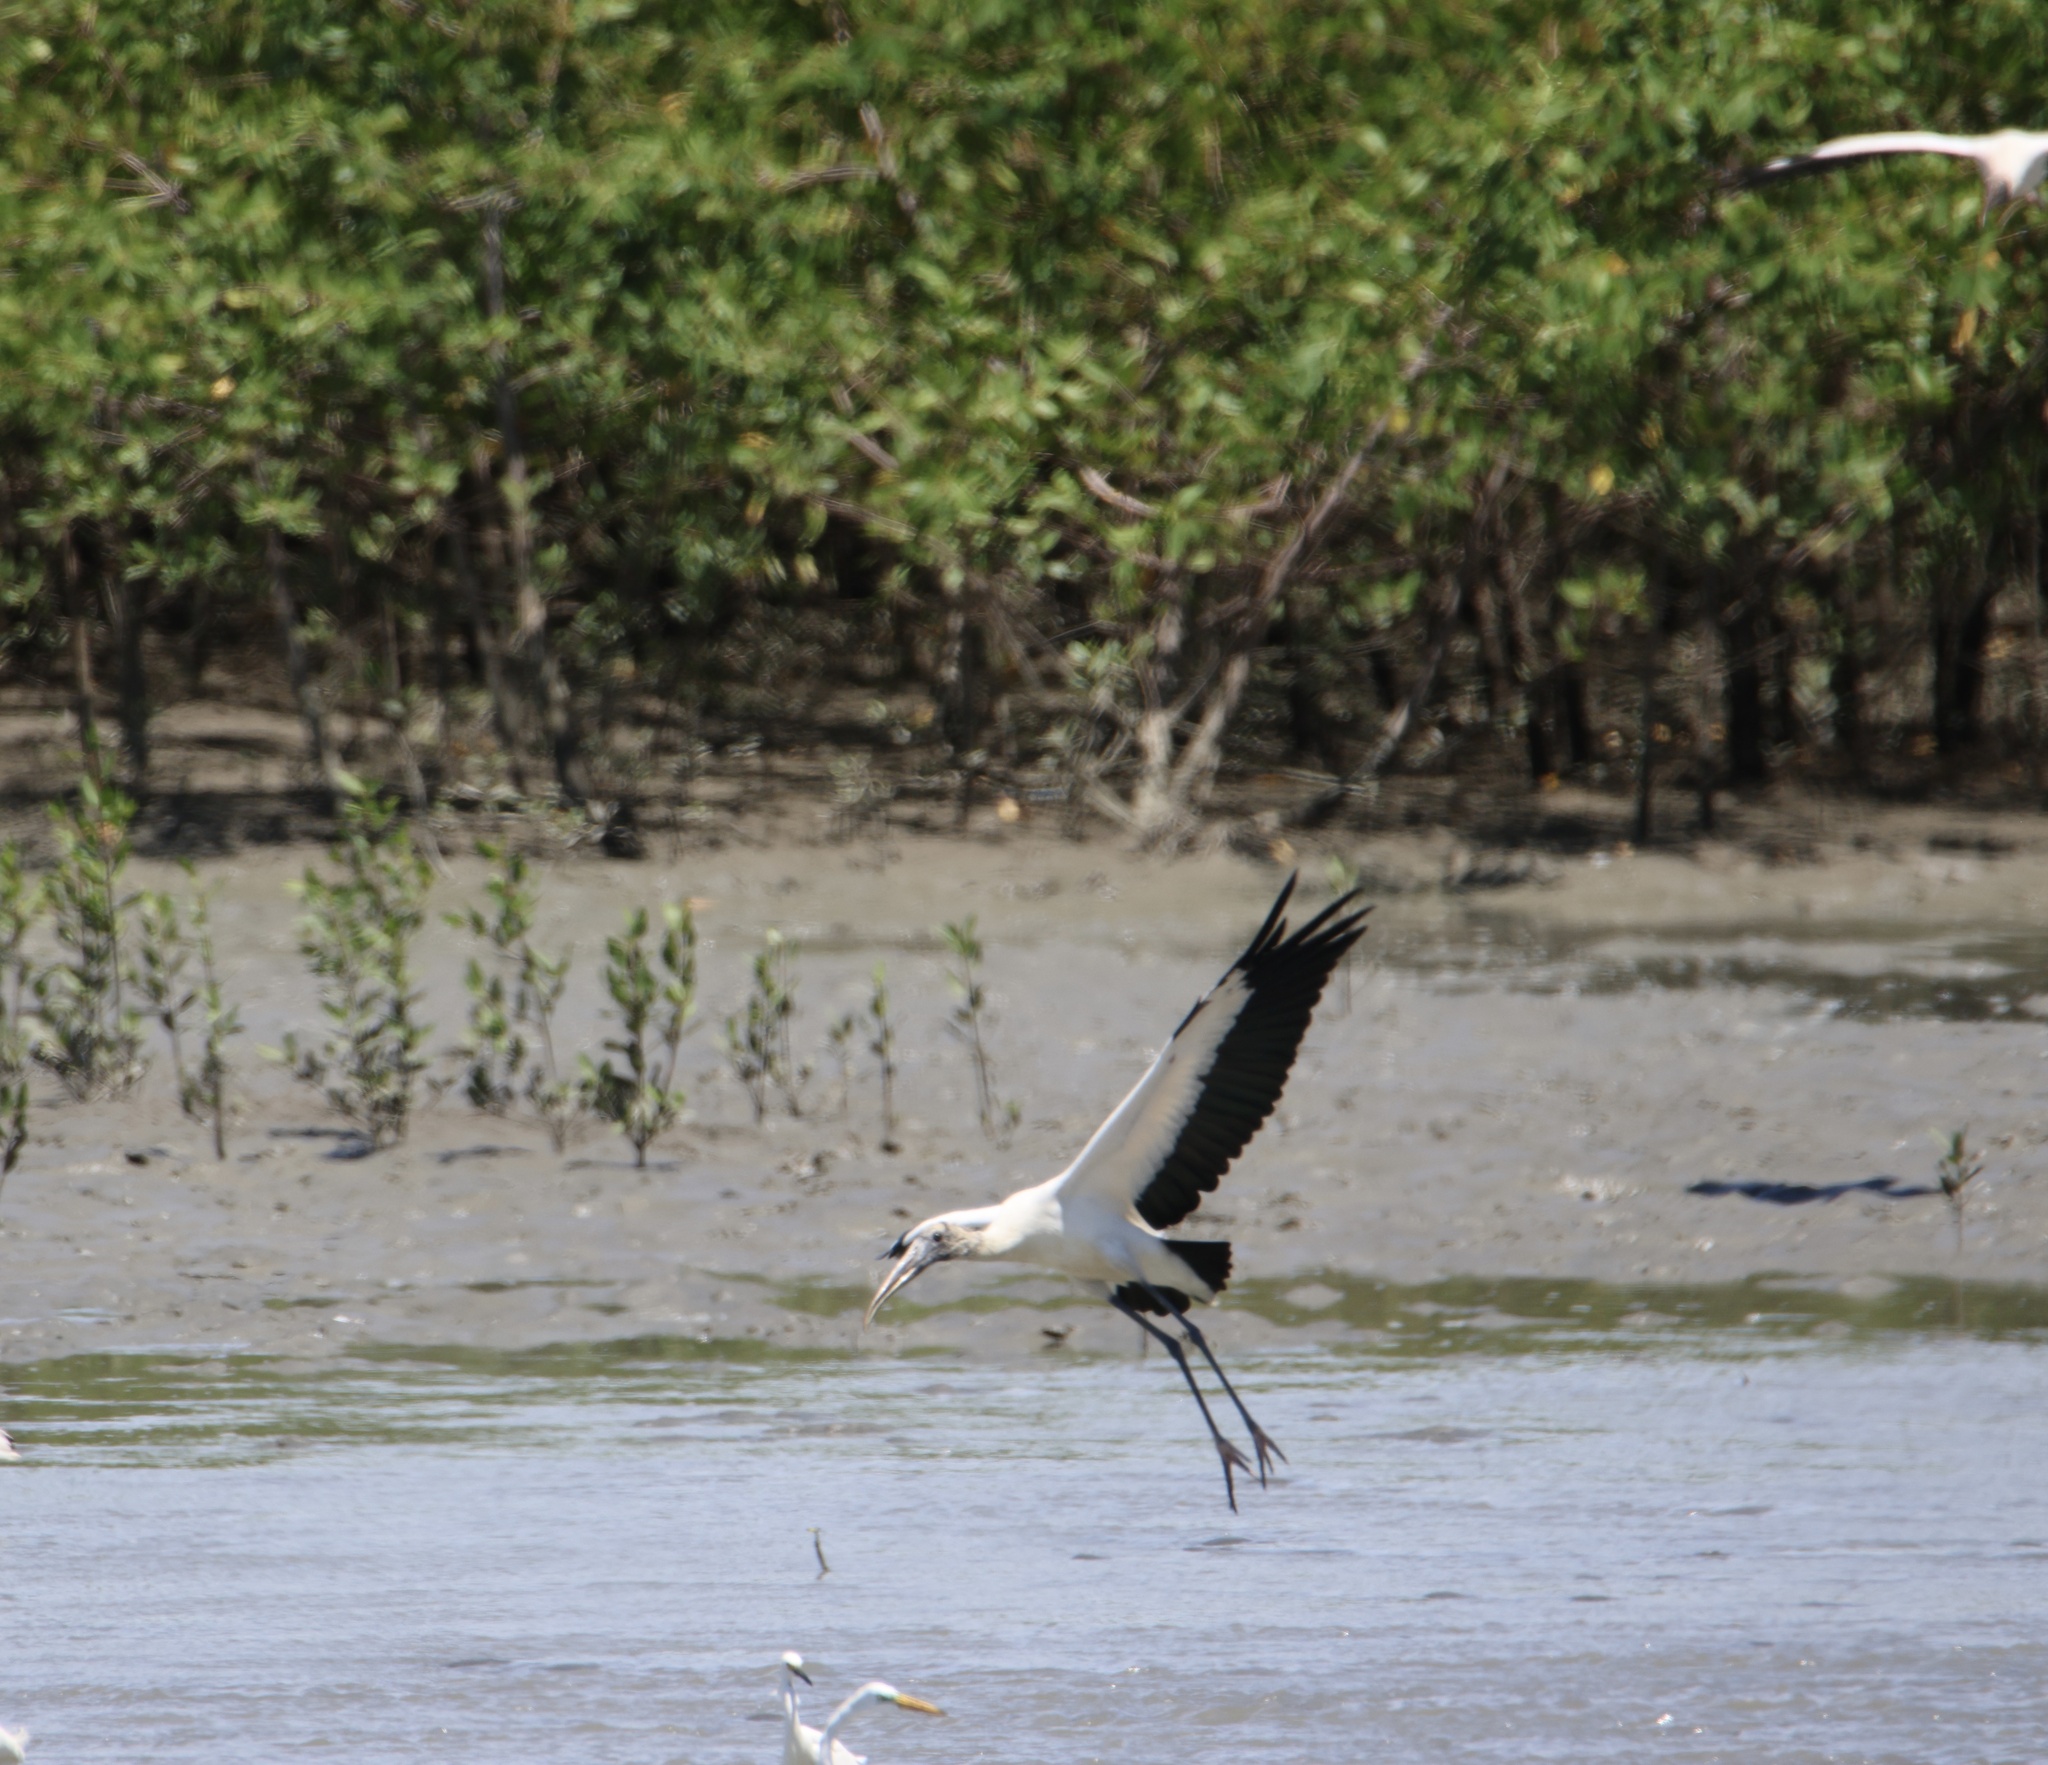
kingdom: Animalia
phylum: Chordata
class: Aves
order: Ciconiiformes
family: Ciconiidae
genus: Mycteria
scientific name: Mycteria americana
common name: Wood stork
